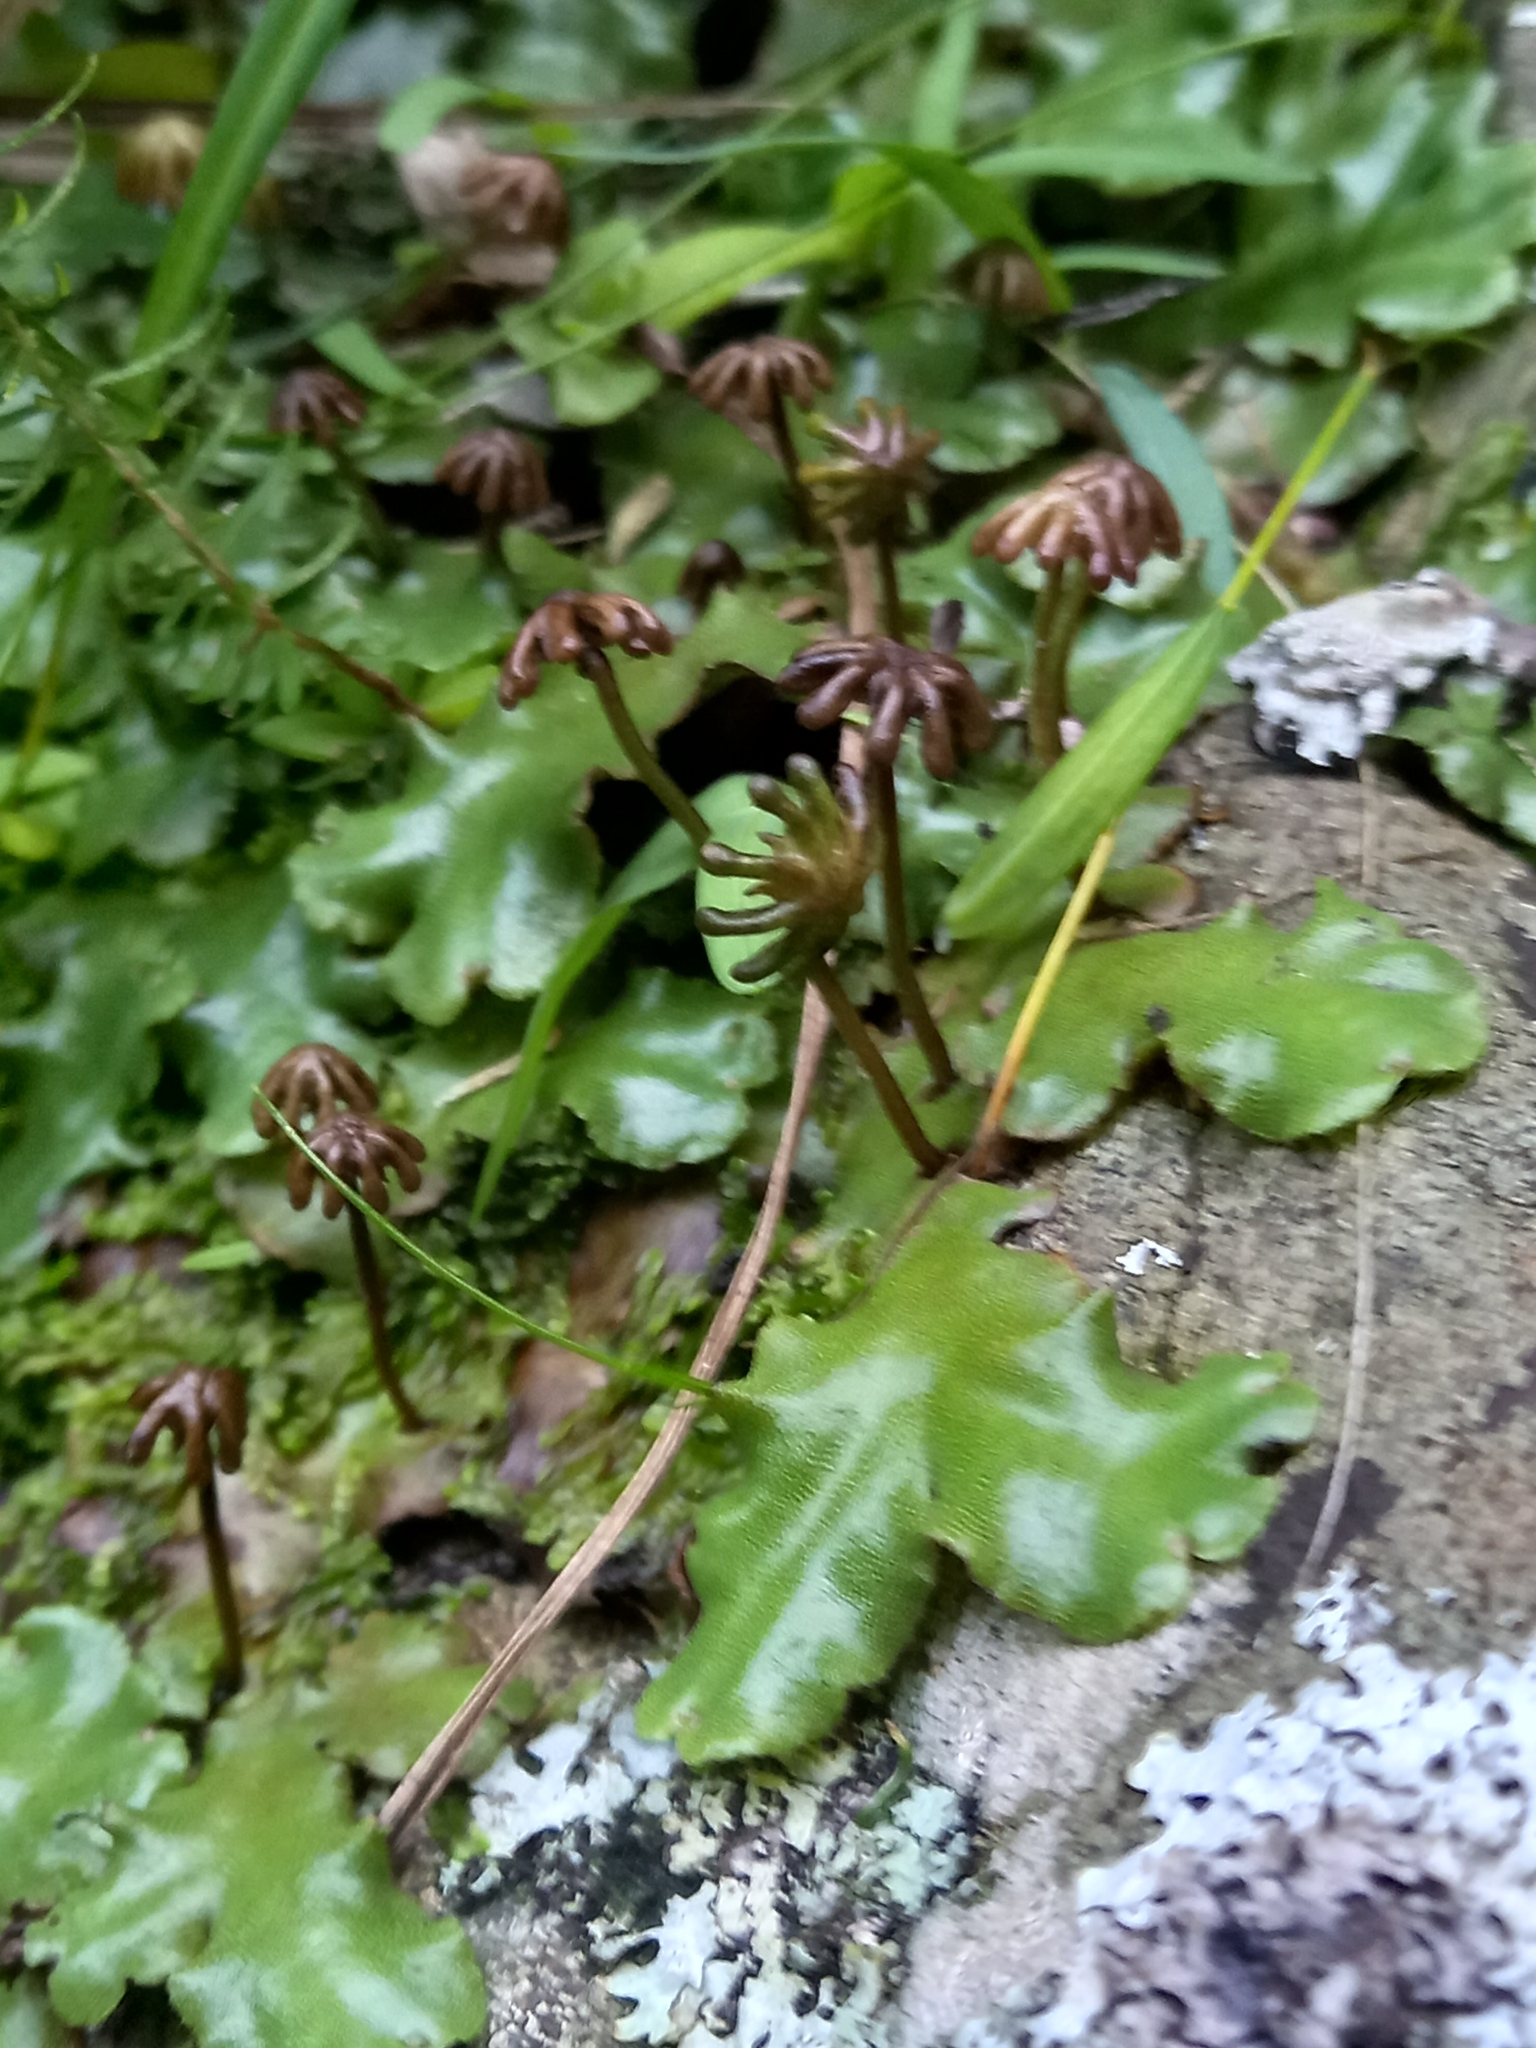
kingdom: Plantae
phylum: Marchantiophyta
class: Marchantiopsida
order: Marchantiales
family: Marchantiaceae
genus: Marchantia
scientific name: Marchantia berteroana
